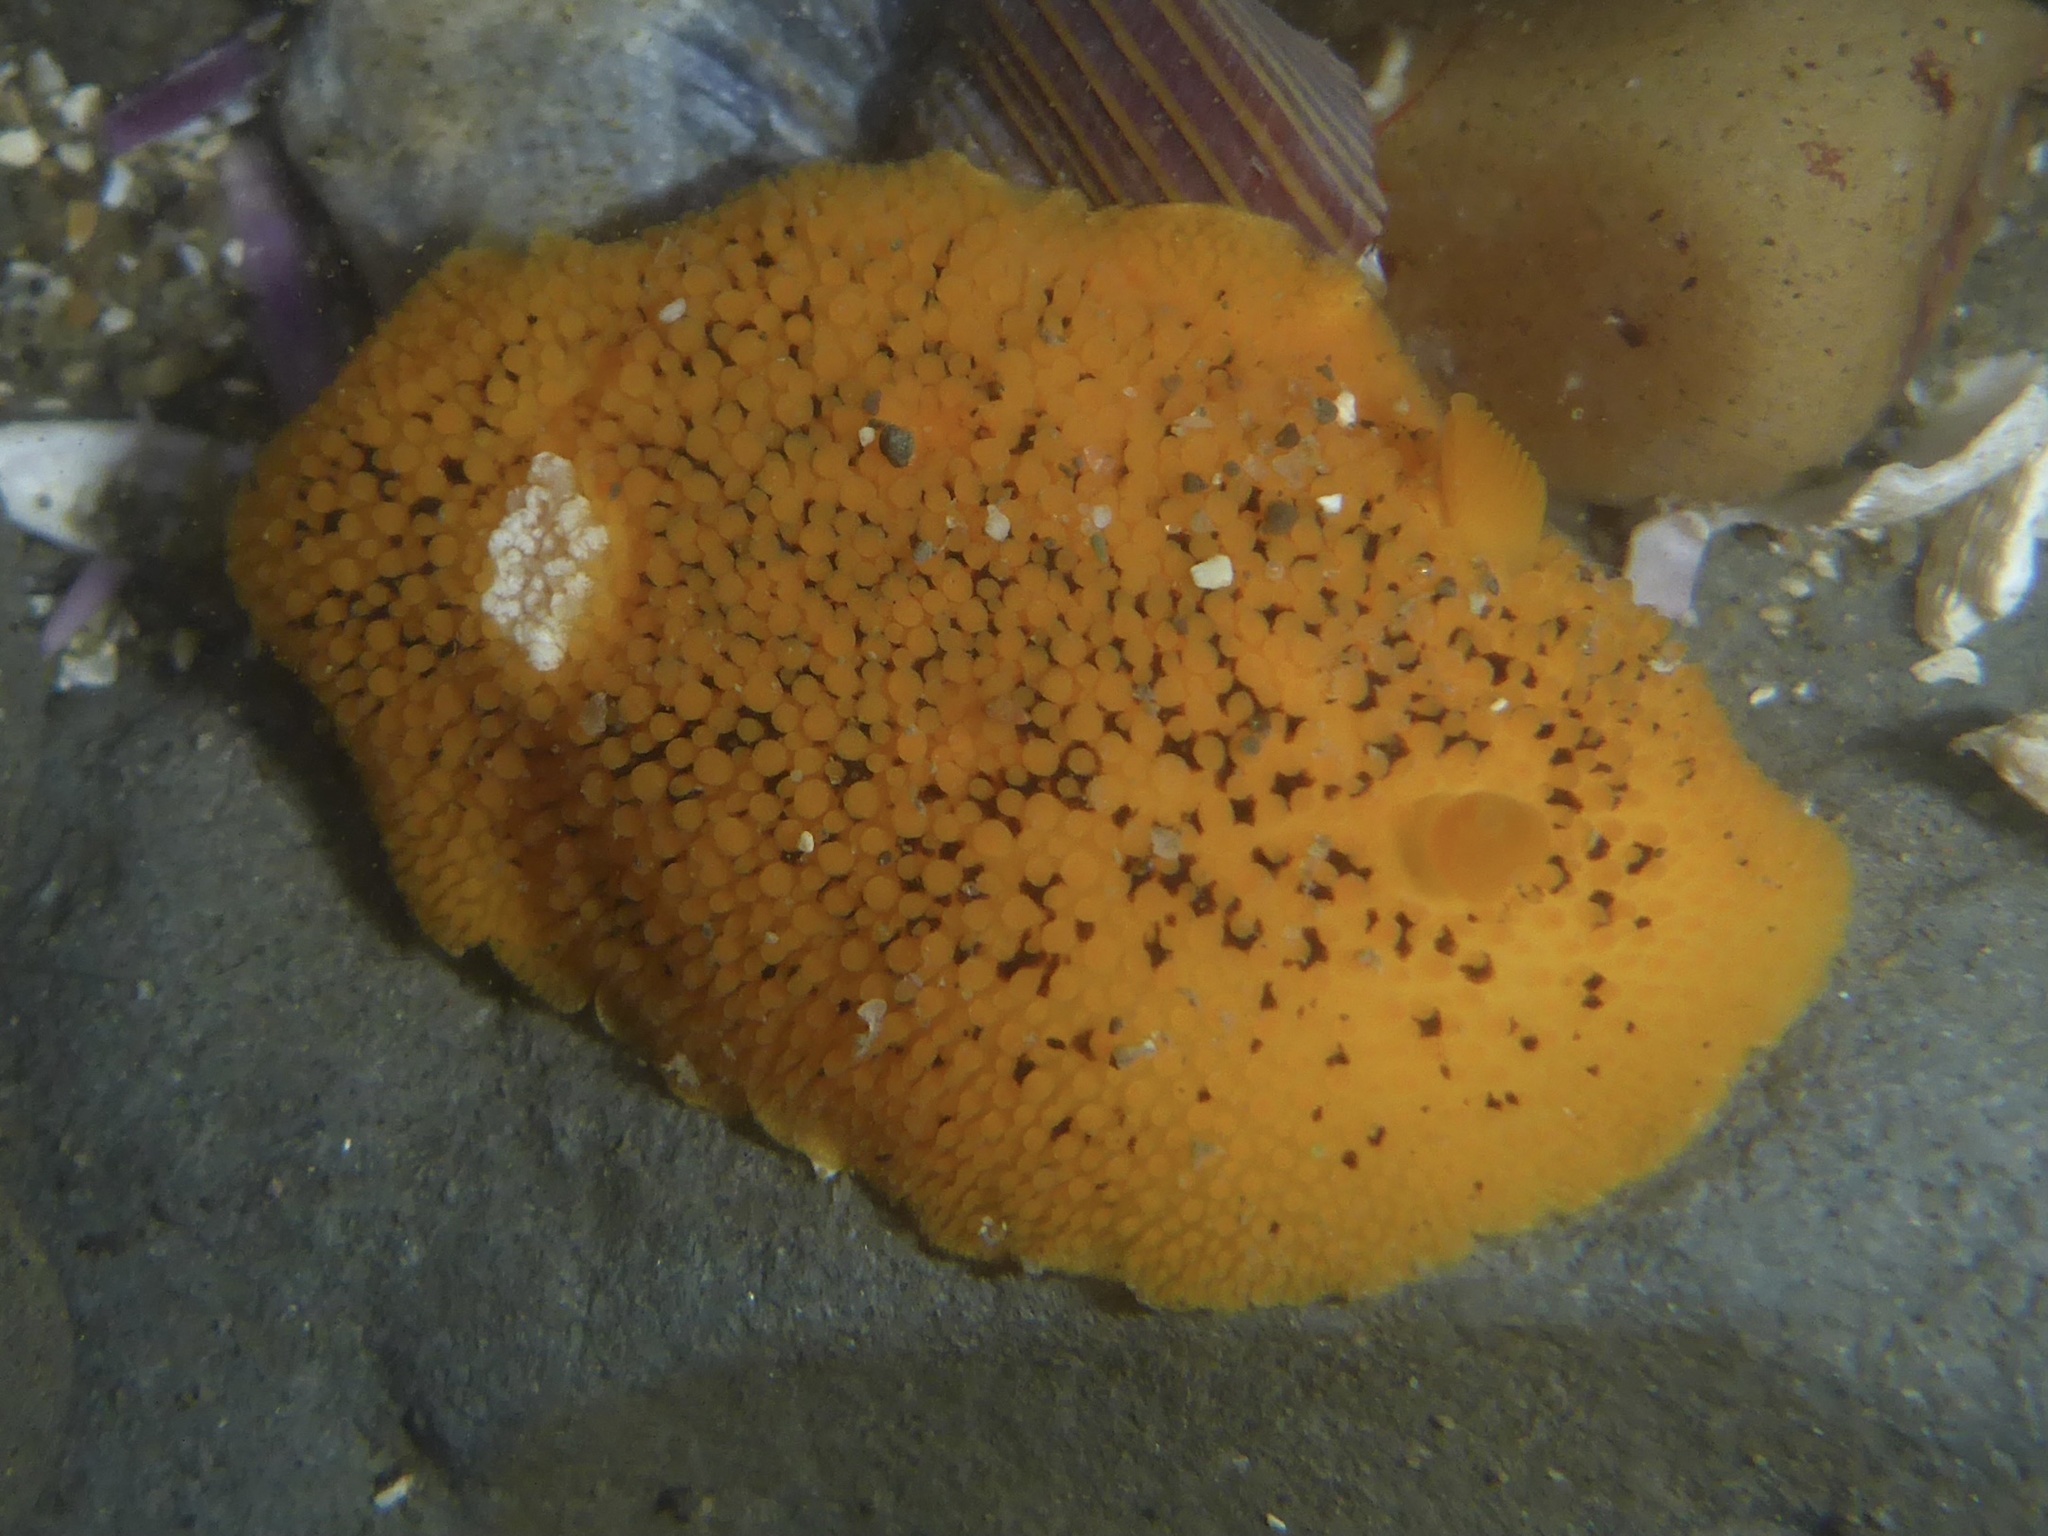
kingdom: Animalia
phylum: Mollusca
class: Gastropoda
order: Nudibranchia
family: Discodorididae
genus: Peltodoris
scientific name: Peltodoris nobilis
